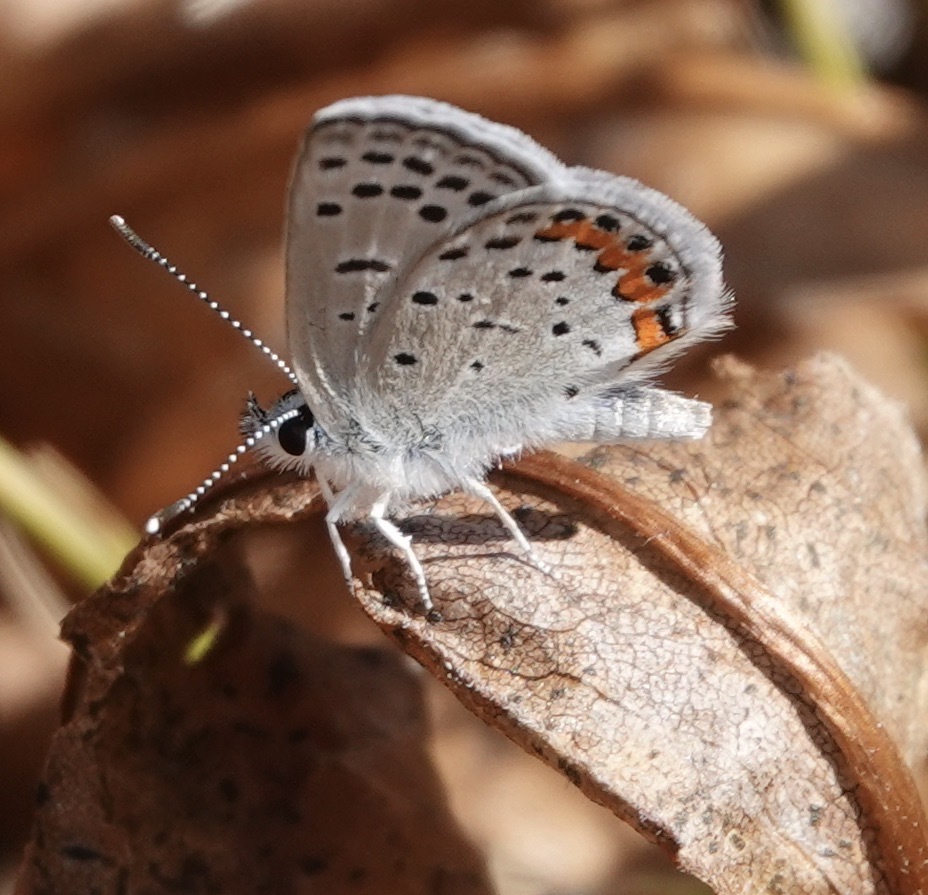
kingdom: Animalia
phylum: Arthropoda
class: Insecta
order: Lepidoptera
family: Lycaenidae
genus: Icaricia
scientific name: Icaricia acmon
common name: Acmon blue
